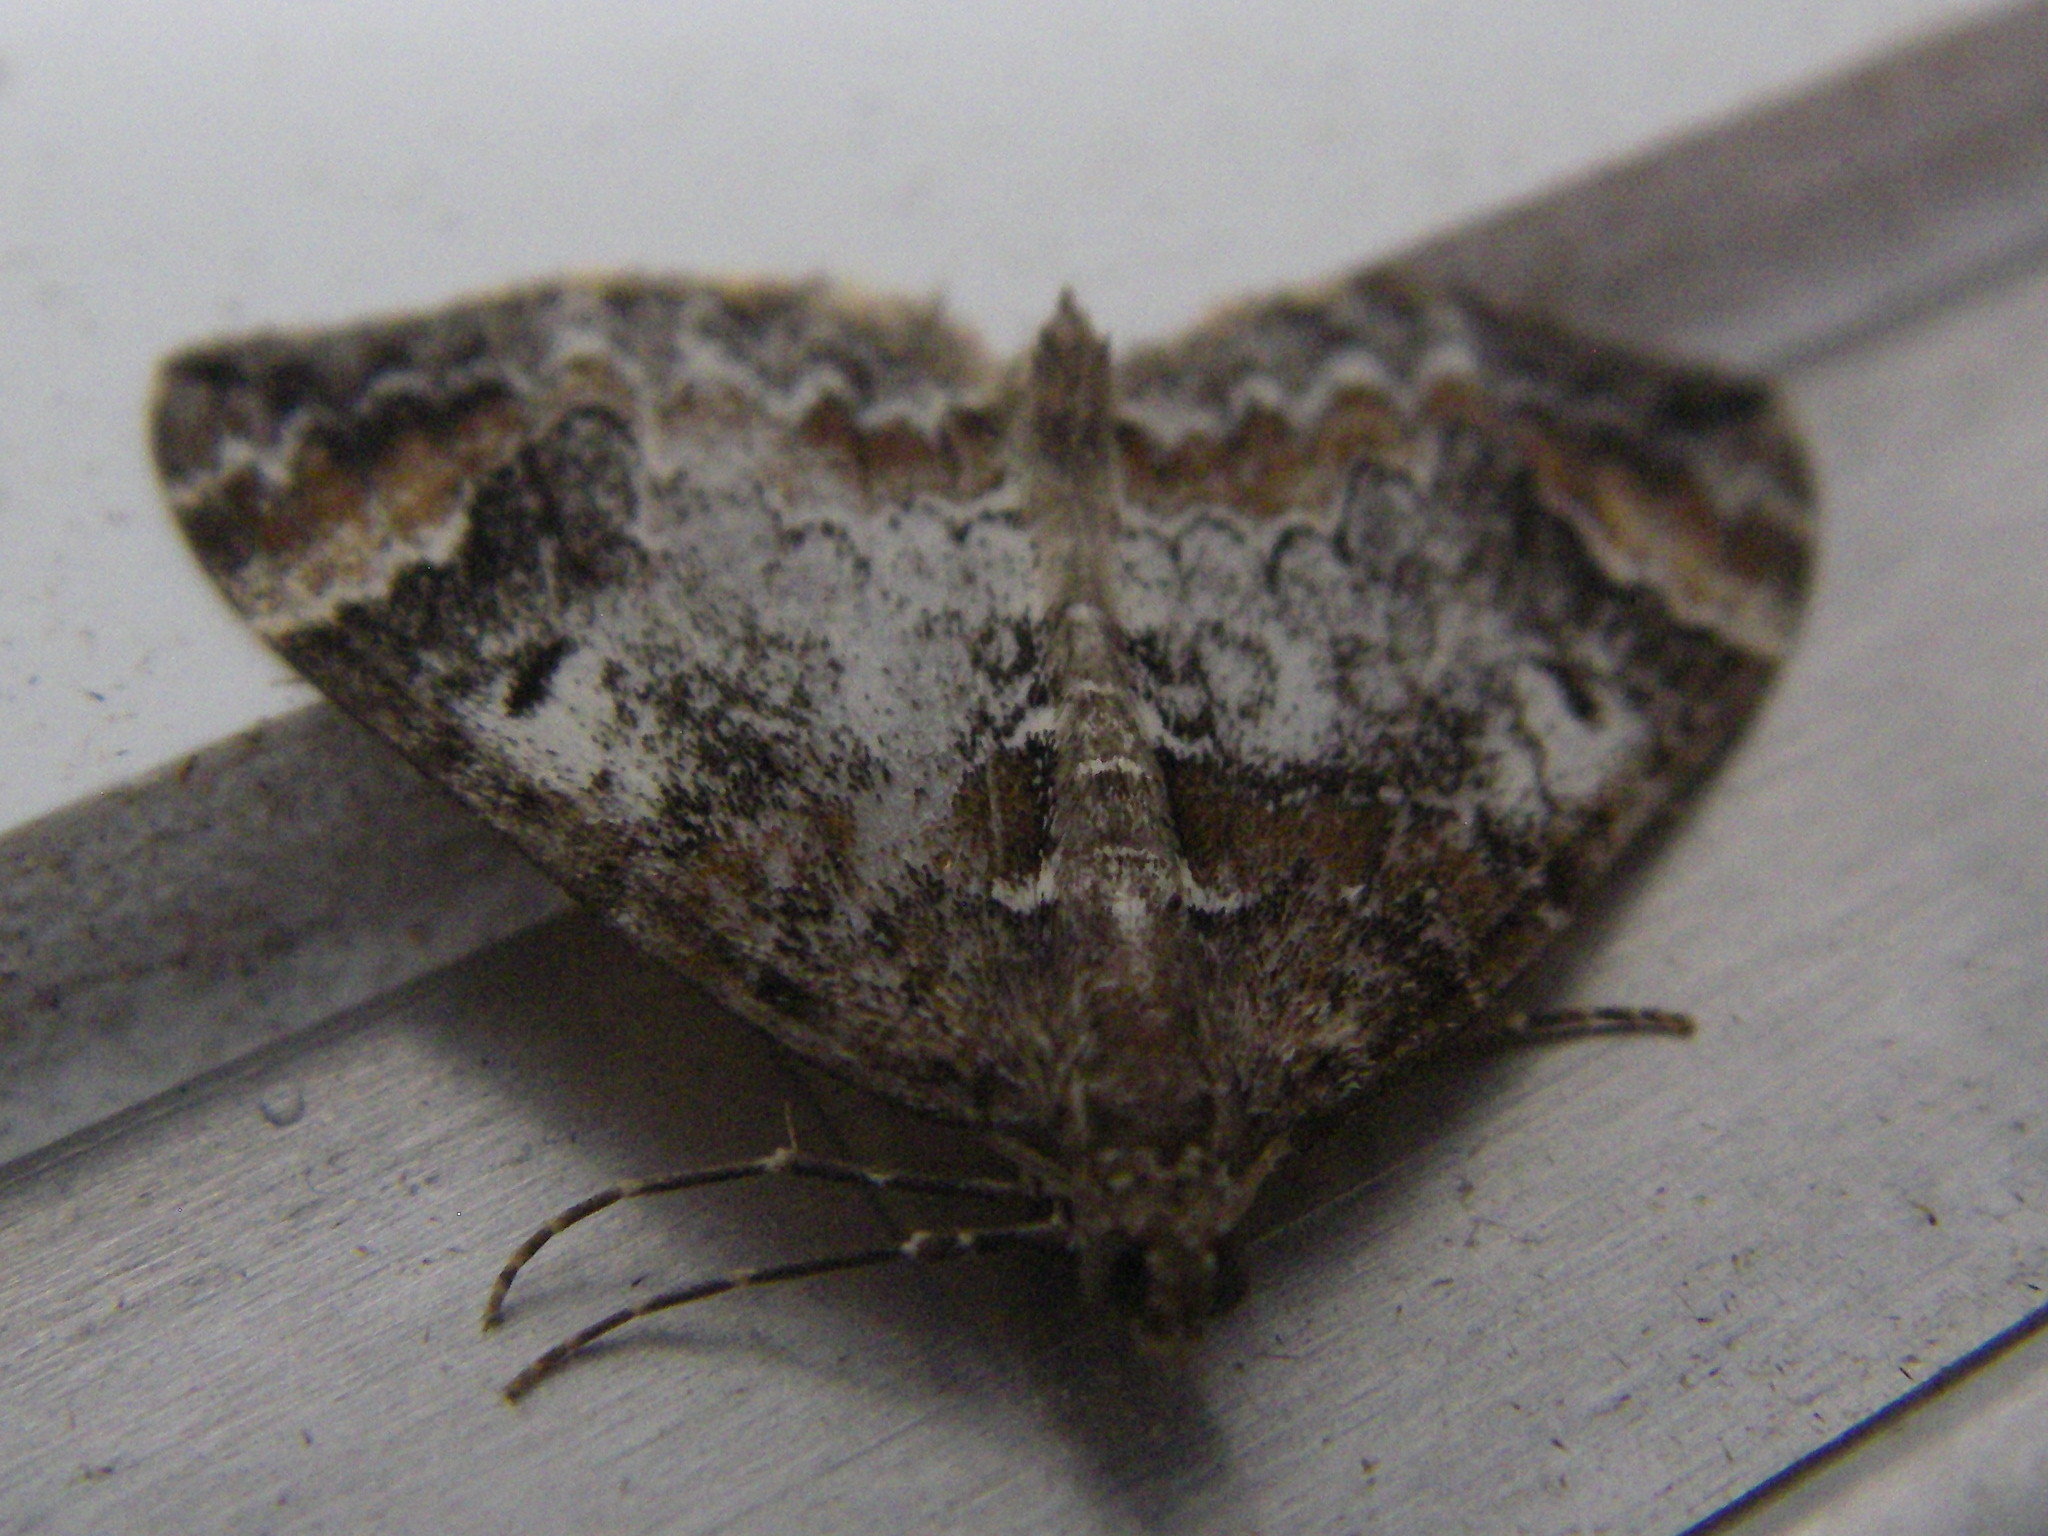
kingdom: Animalia
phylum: Arthropoda
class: Insecta
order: Lepidoptera
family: Geometridae
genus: Dysstroma
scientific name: Dysstroma truncata
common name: Common marbled carpet
